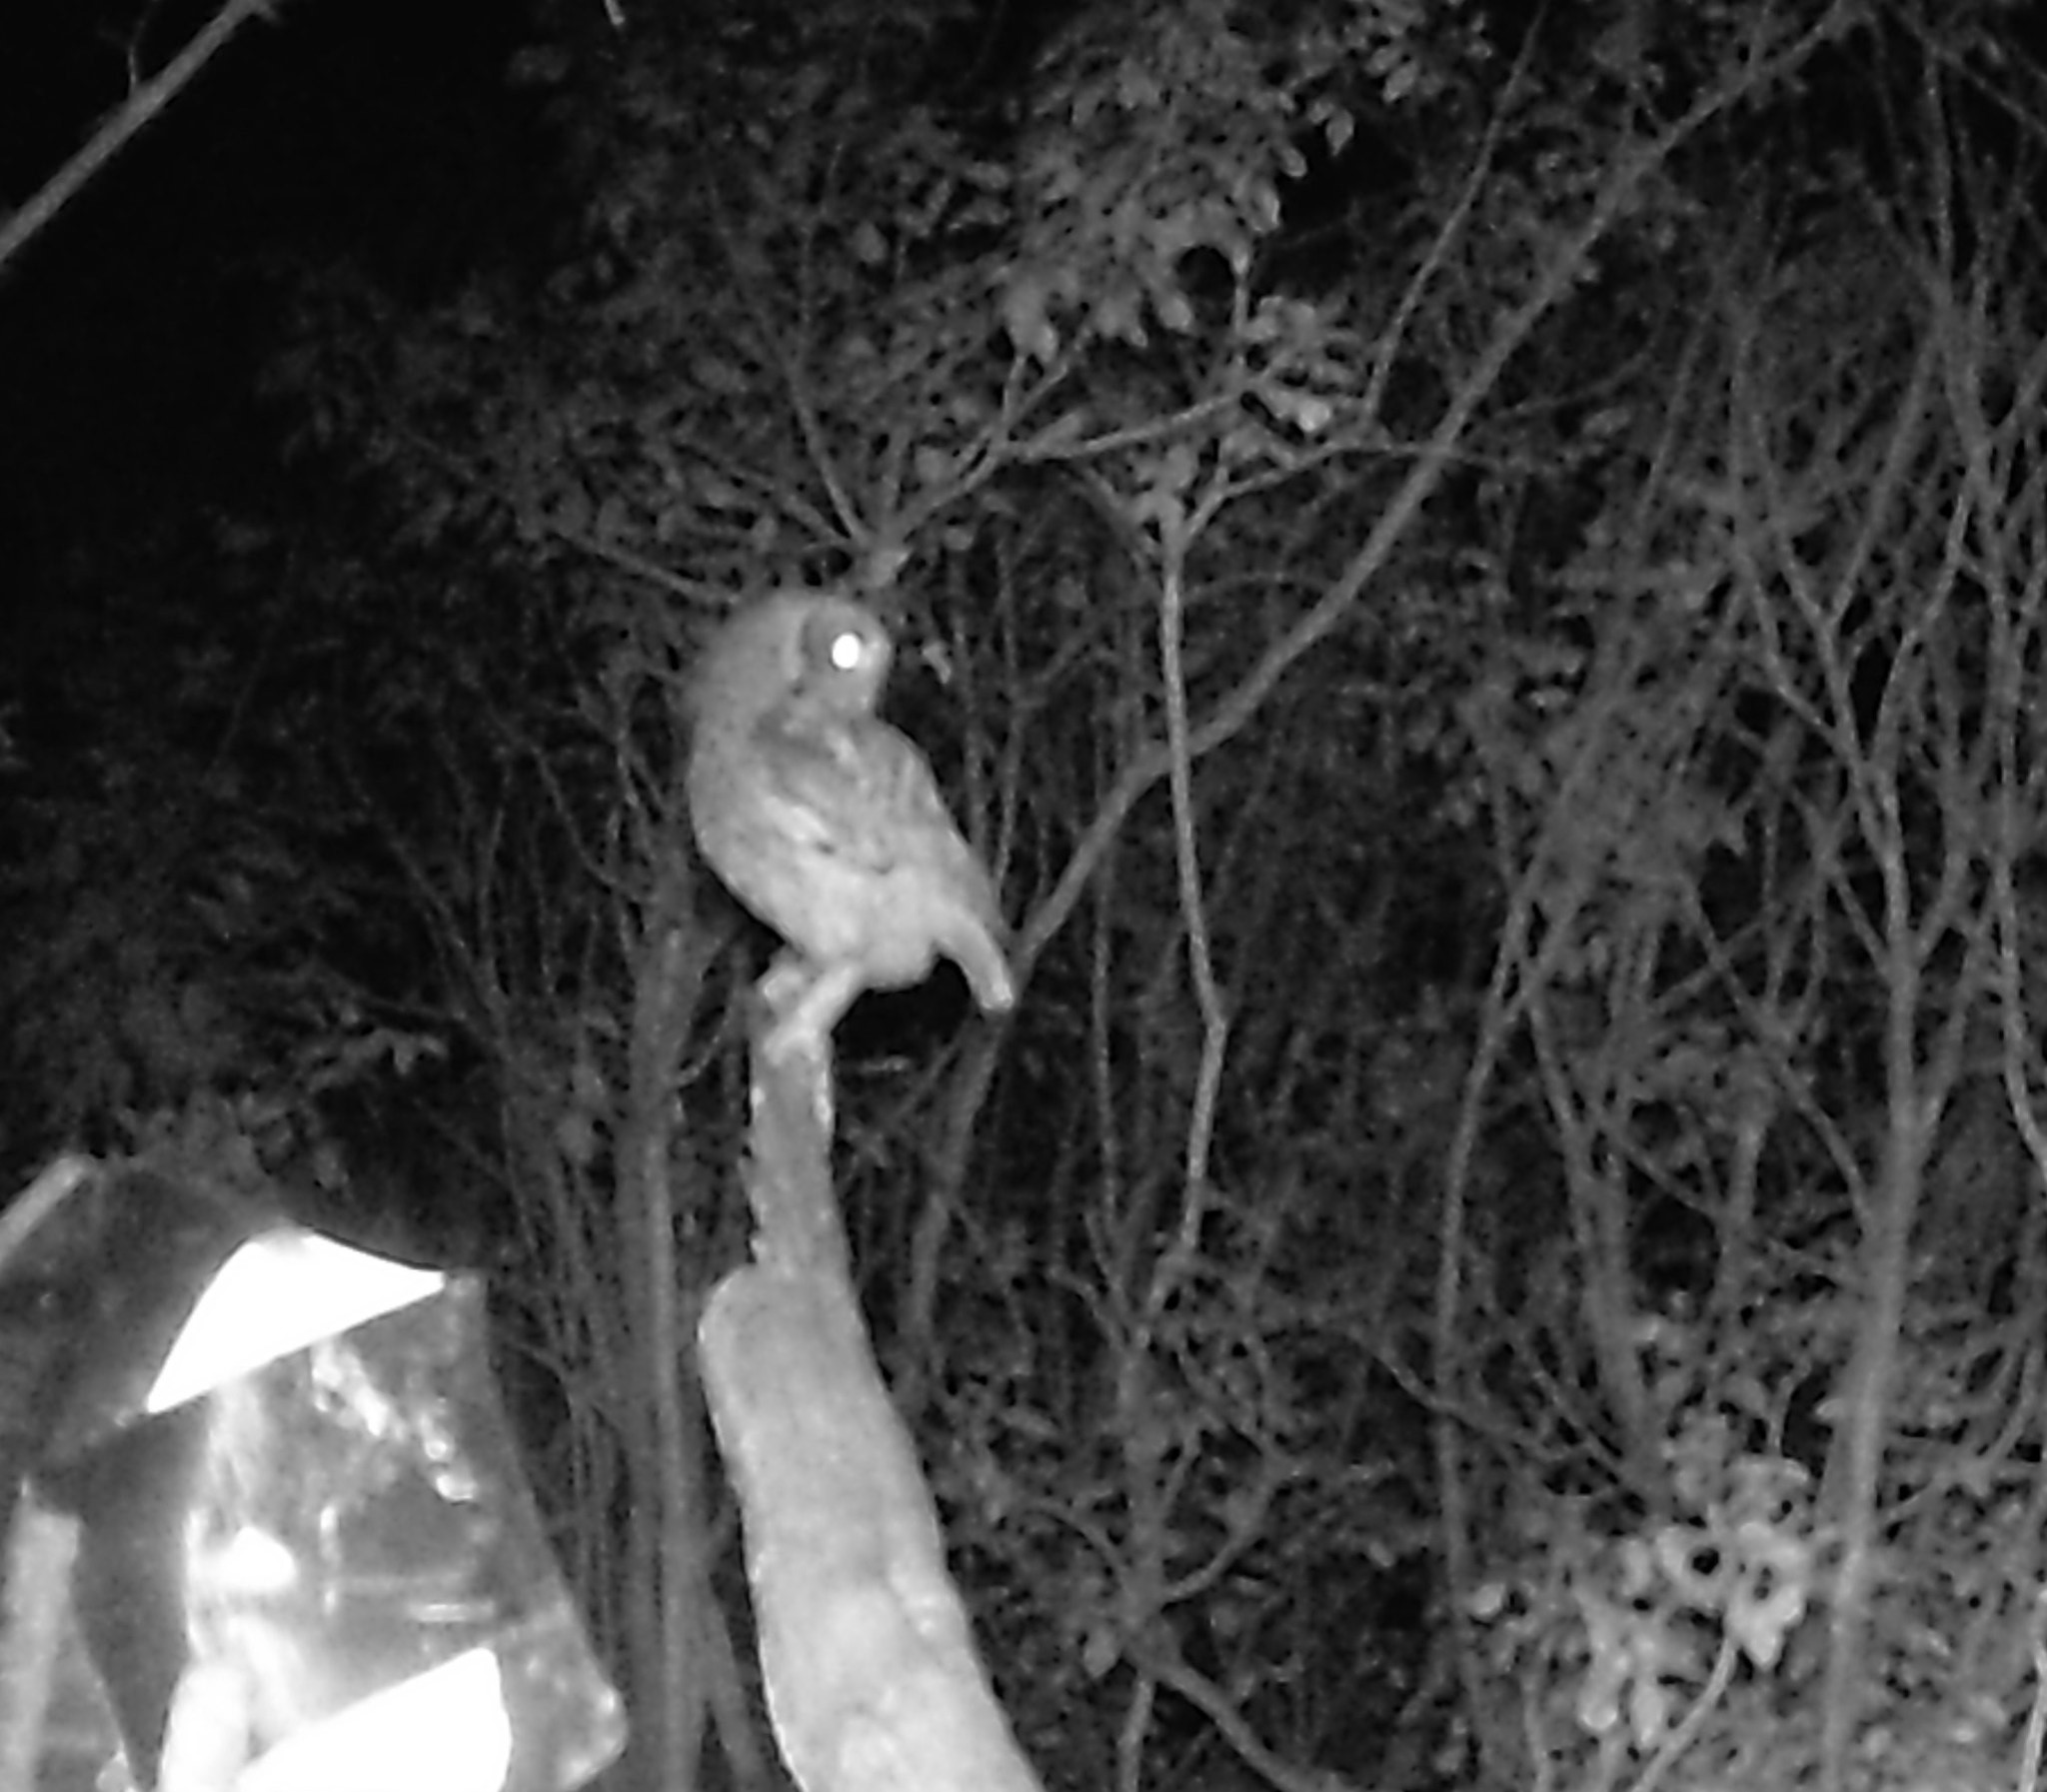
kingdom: Animalia
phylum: Chordata
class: Aves
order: Strigiformes
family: Strigidae
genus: Megascops
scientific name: Megascops asio
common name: Eastern screech-owl
